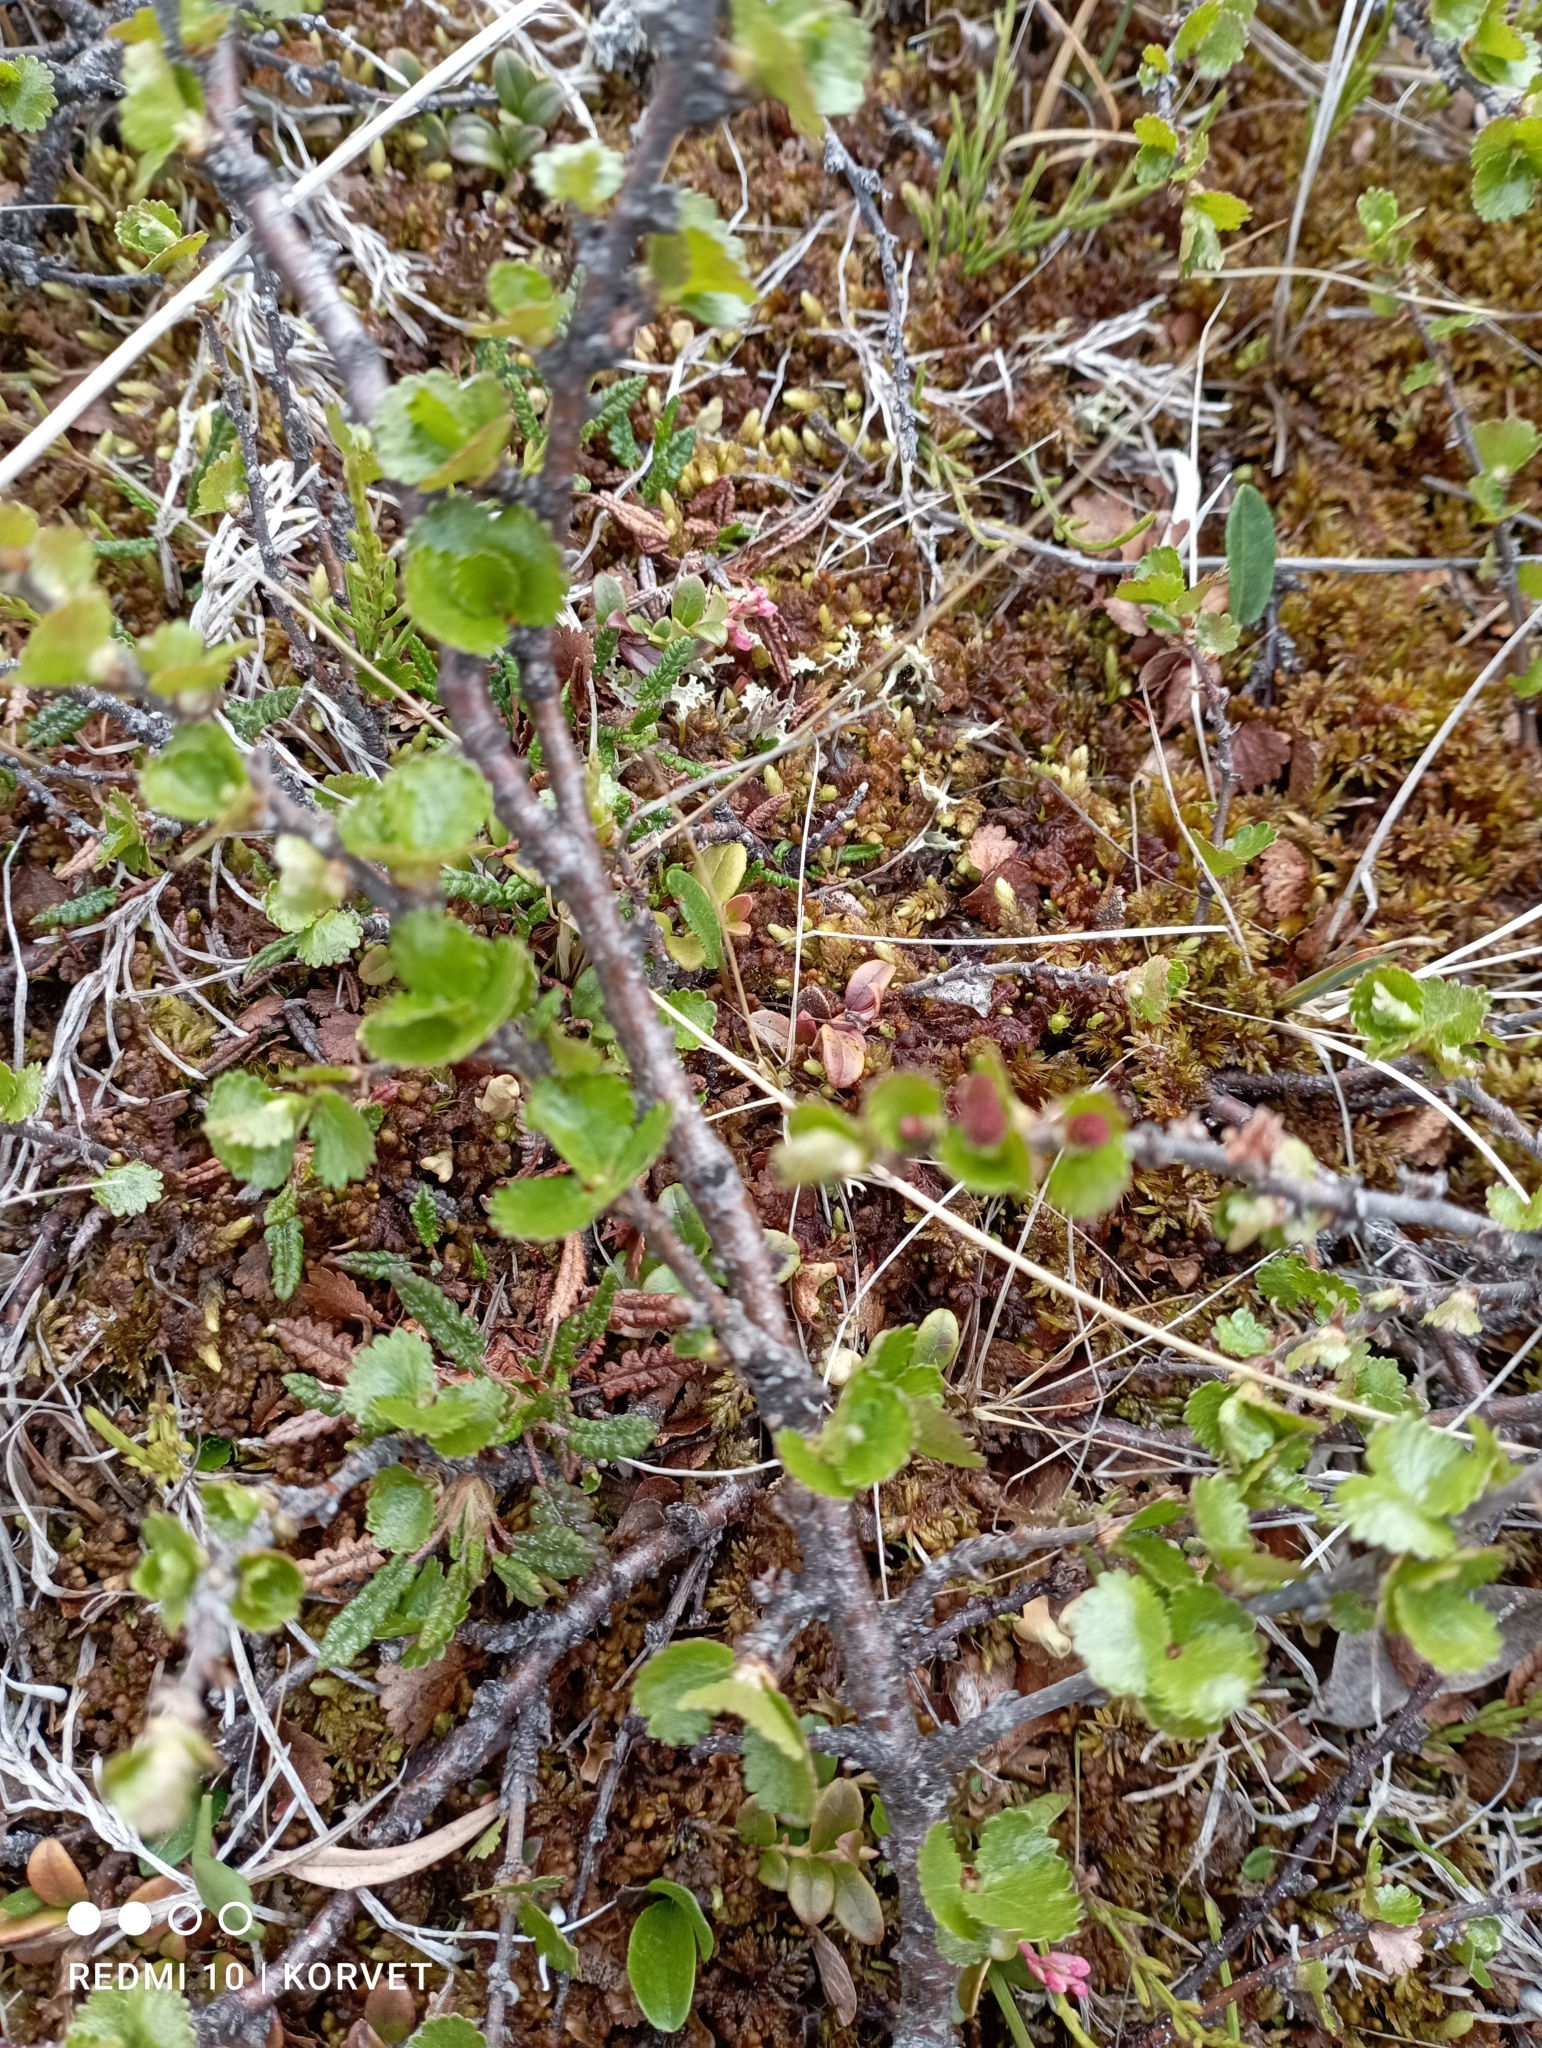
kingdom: Plantae
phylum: Tracheophyta
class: Magnoliopsida
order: Fagales
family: Betulaceae
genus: Betula
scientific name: Betula nana
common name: Arctic dwarf birch
